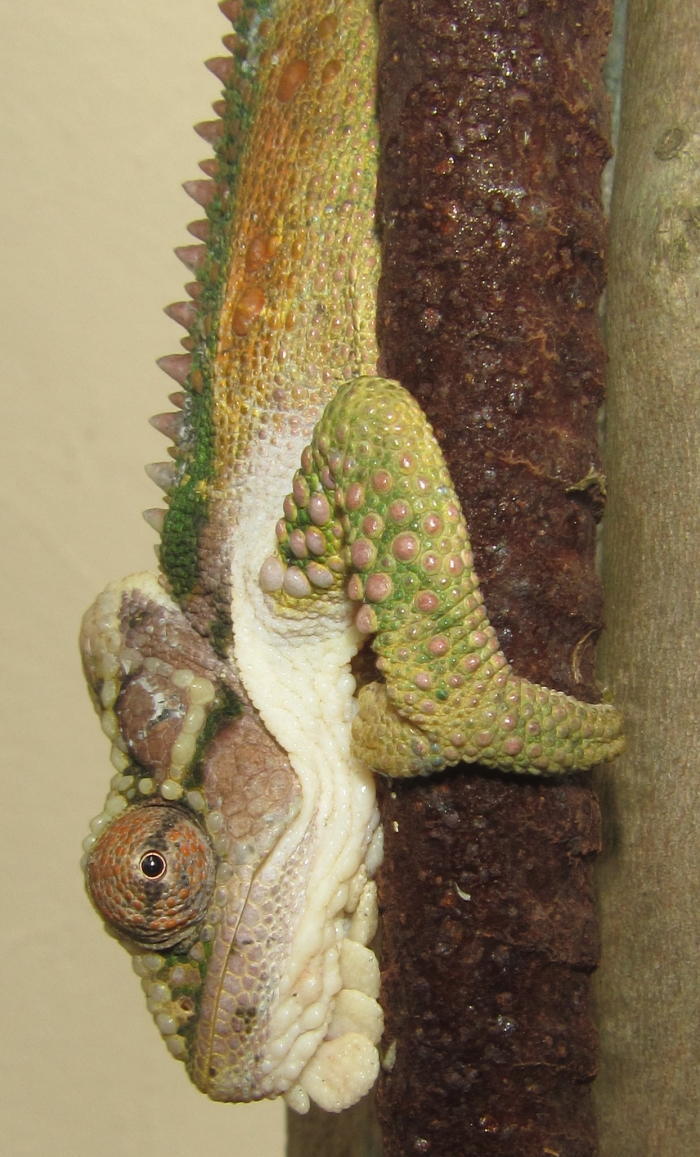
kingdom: Animalia
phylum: Chordata
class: Squamata
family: Chamaeleonidae
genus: Bradypodion
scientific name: Bradypodion thamnobates
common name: Natal midlands dwarf chameleon
